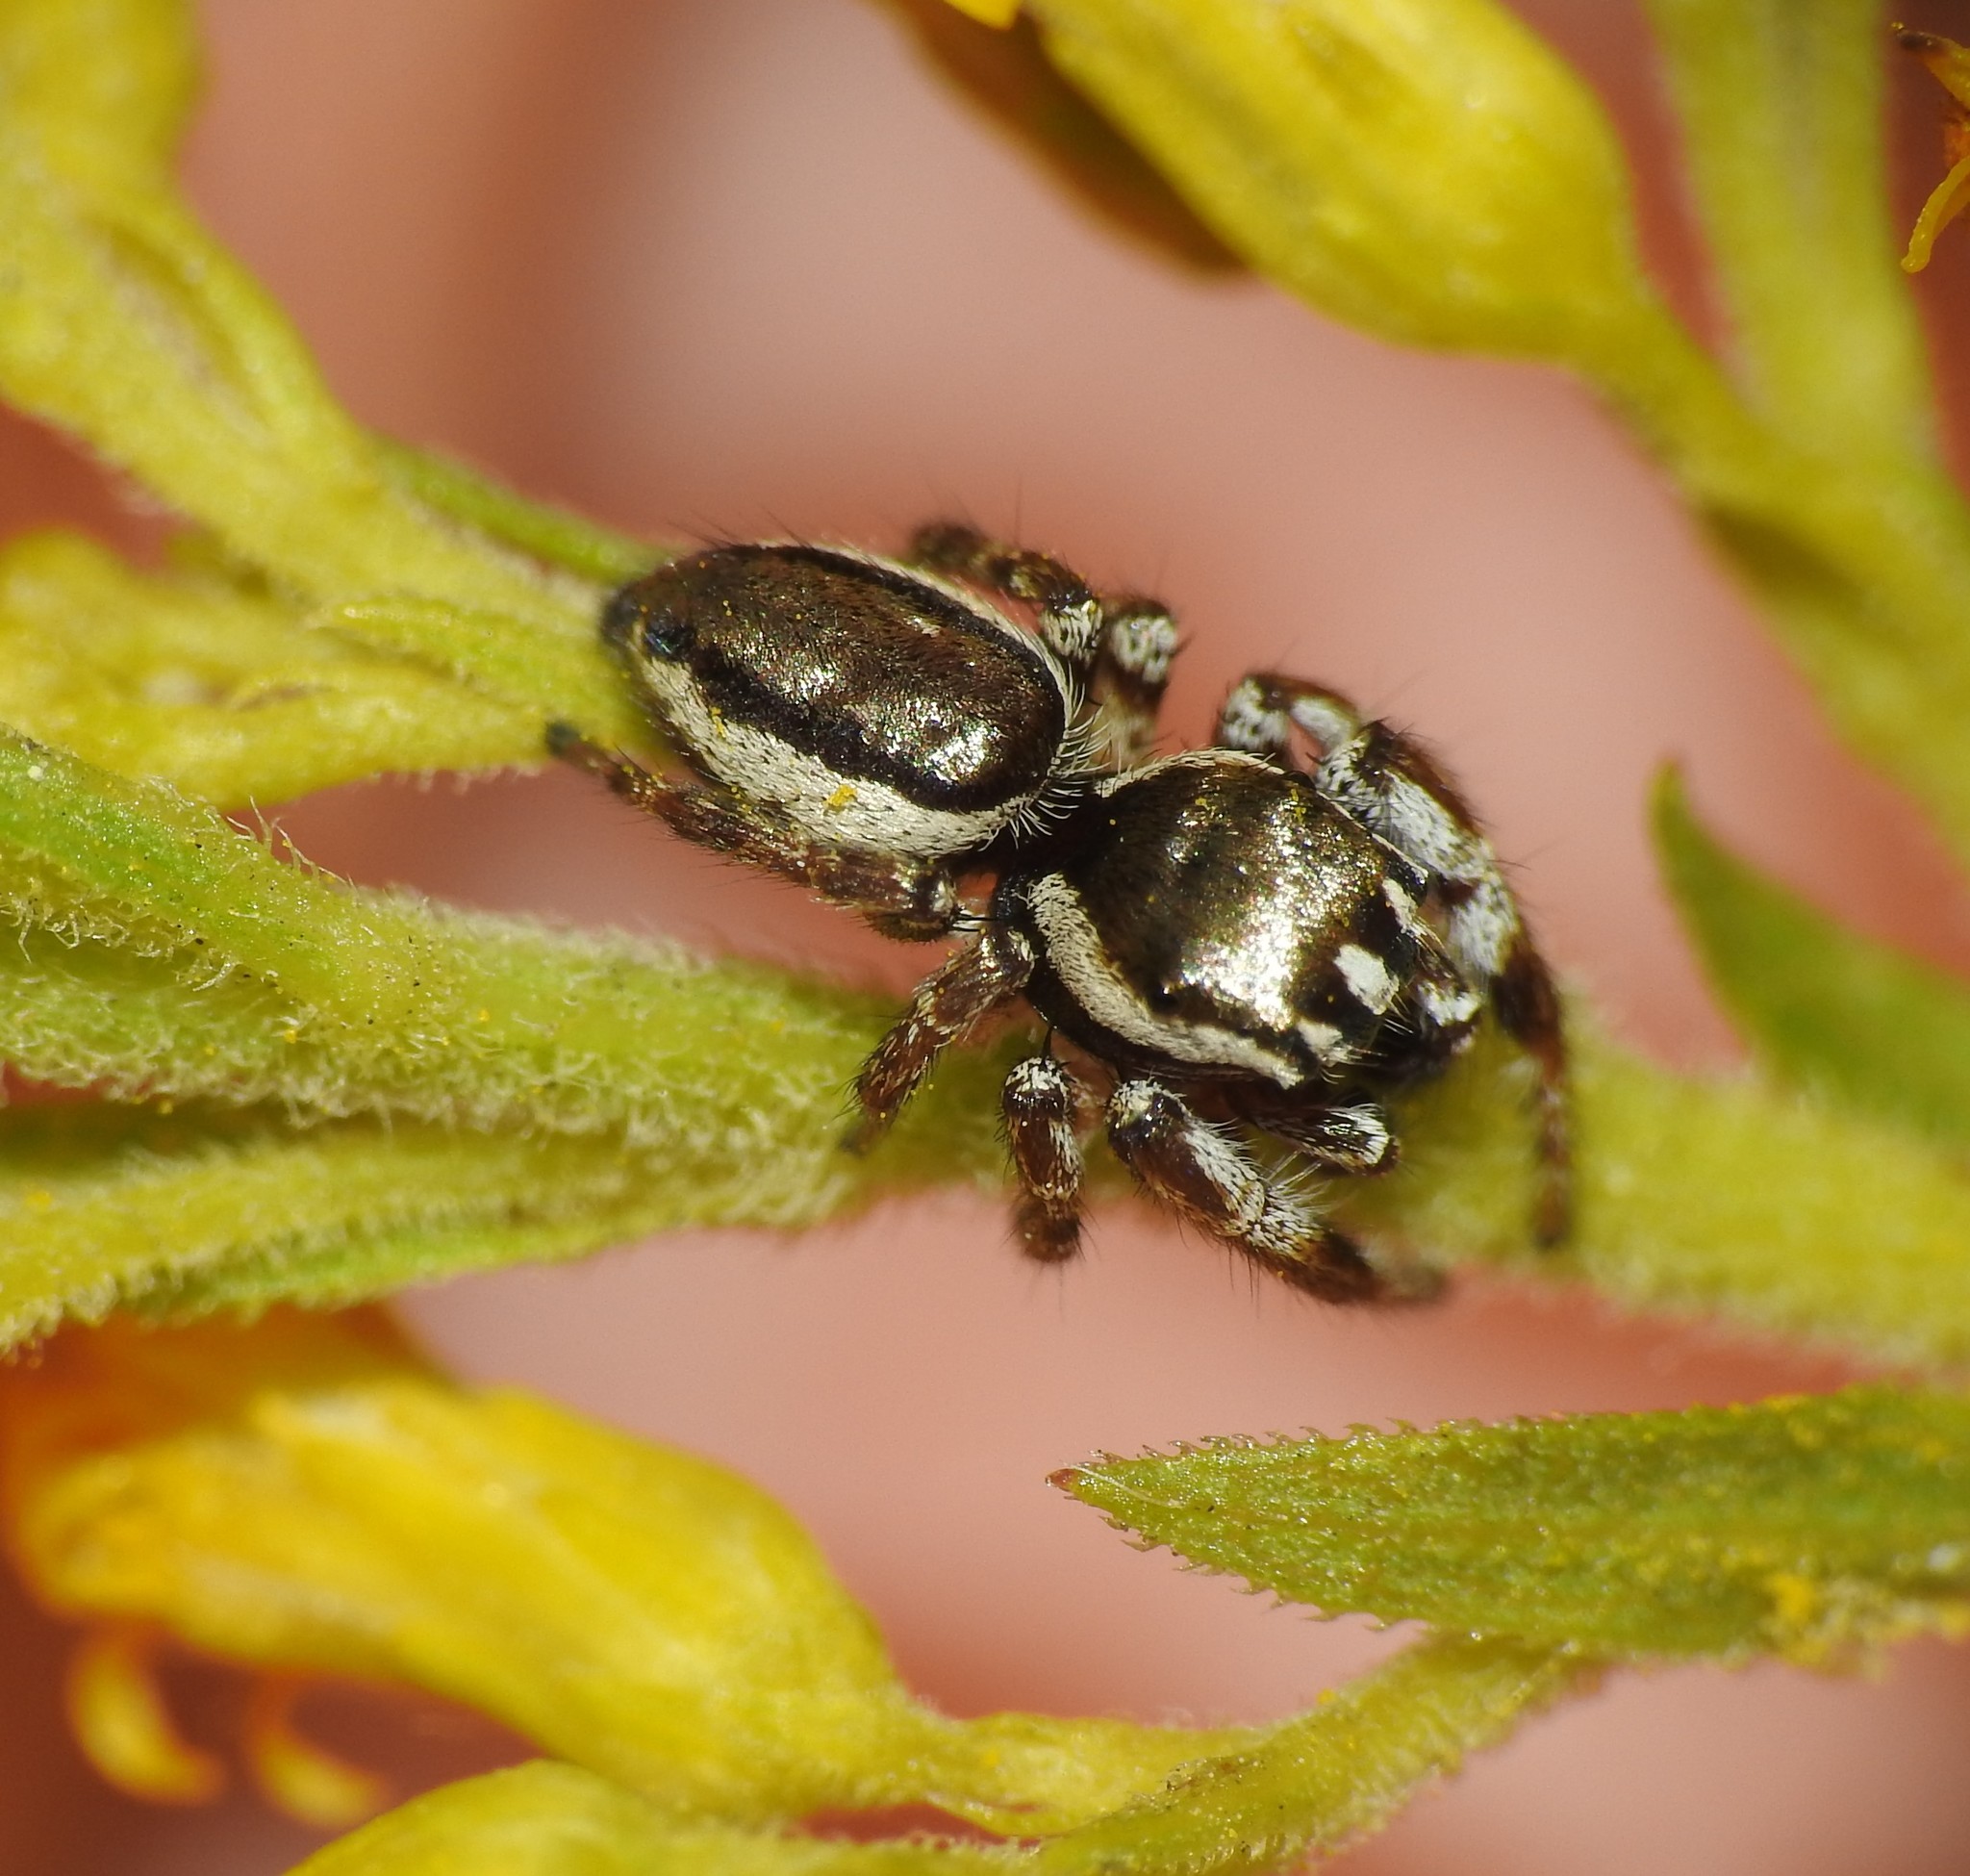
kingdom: Animalia
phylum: Arthropoda
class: Arachnida
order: Araneae
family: Salticidae
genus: Pelegrina
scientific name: Pelegrina galathea
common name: Jumping spiders
